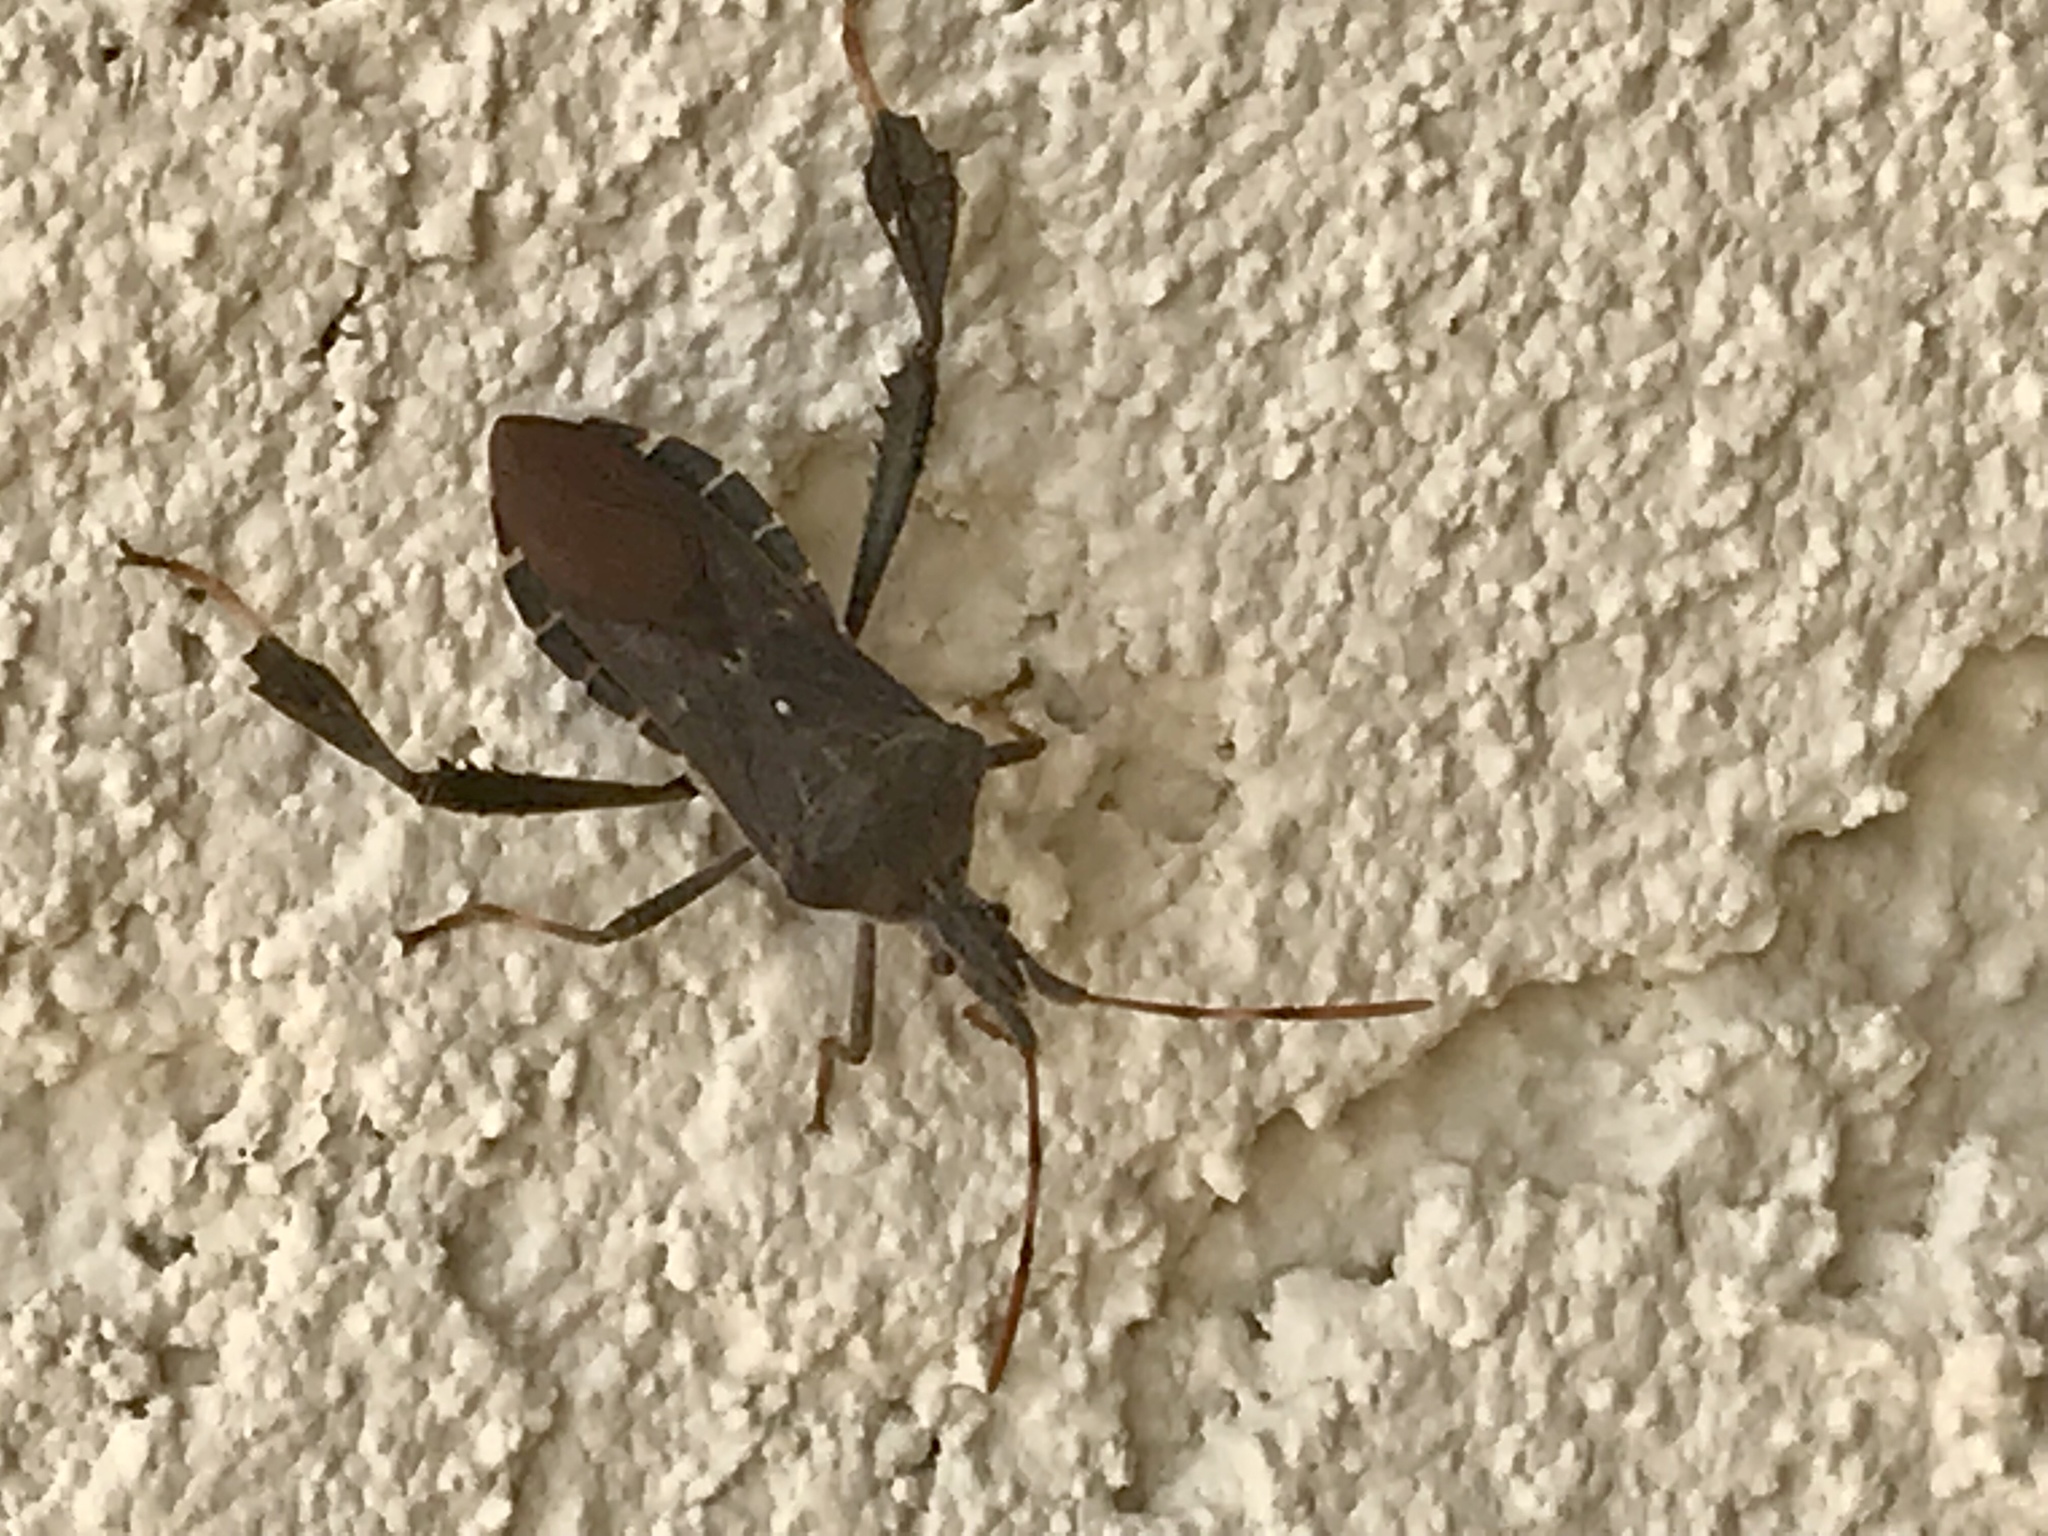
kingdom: Animalia
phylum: Arthropoda
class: Insecta
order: Hemiptera
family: Coreidae
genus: Leptoglossus
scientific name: Leptoglossus oppositus
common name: Northern leaf-footed bug
